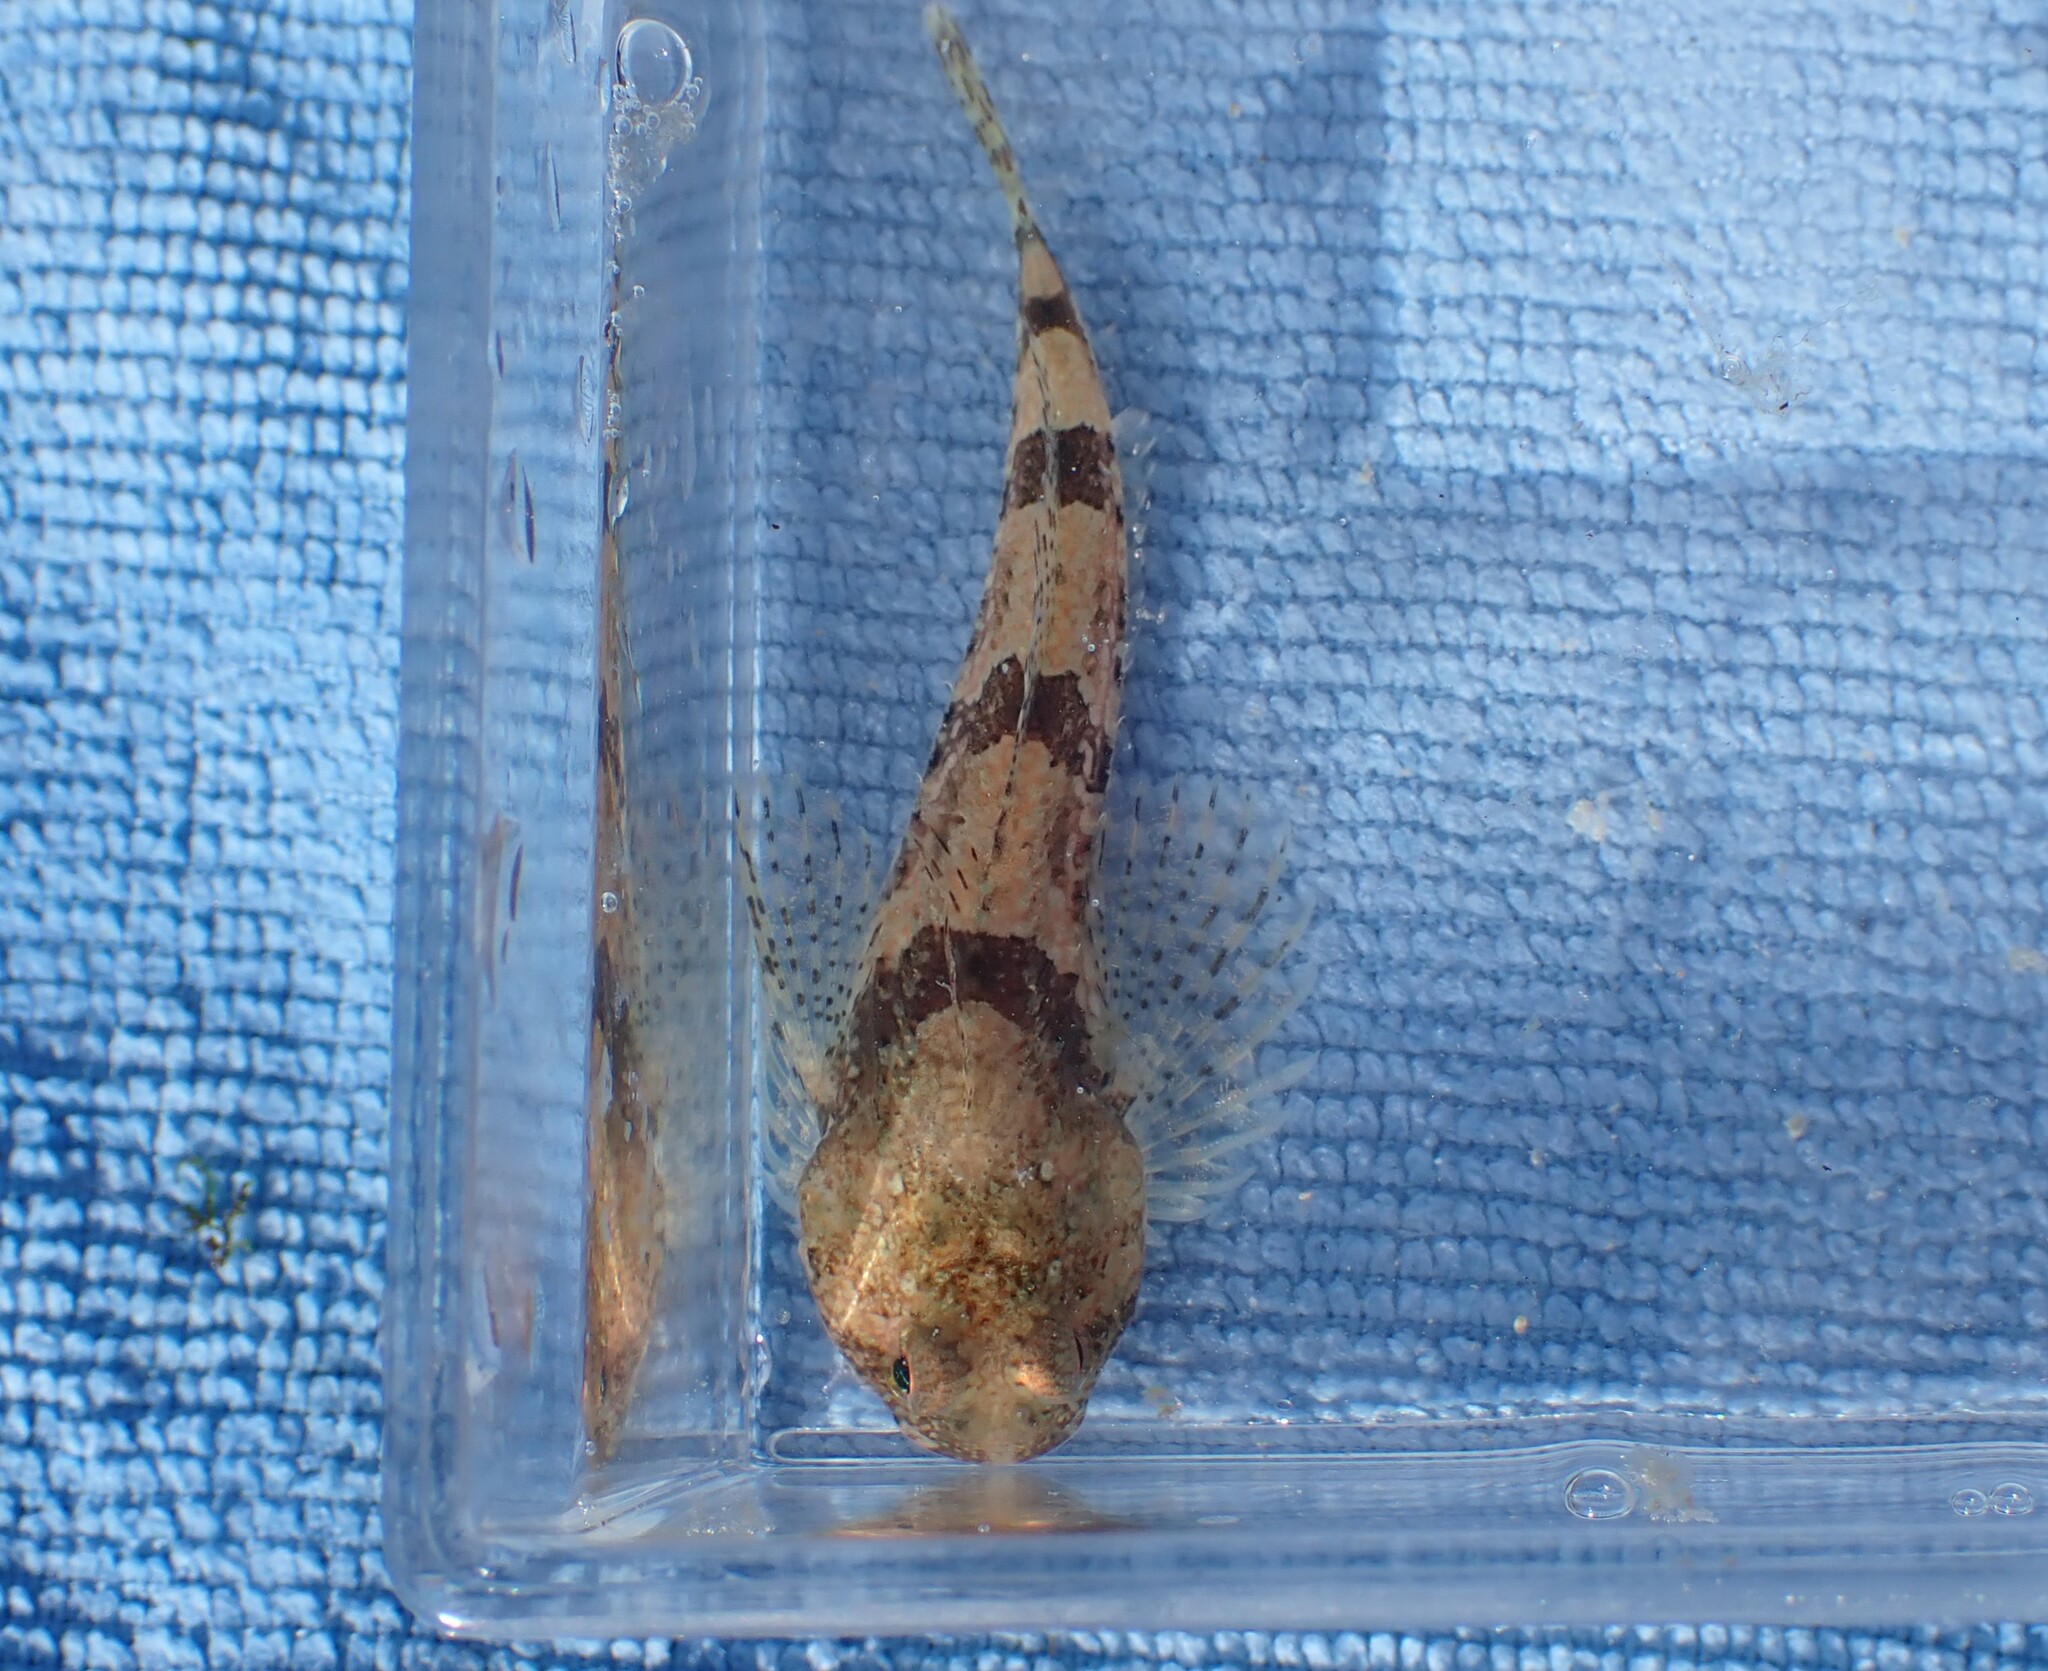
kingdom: Animalia
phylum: Chordata
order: Scorpaeniformes
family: Cottidae
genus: Artedius
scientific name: Artedius fenestralis
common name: Padded sculpin
